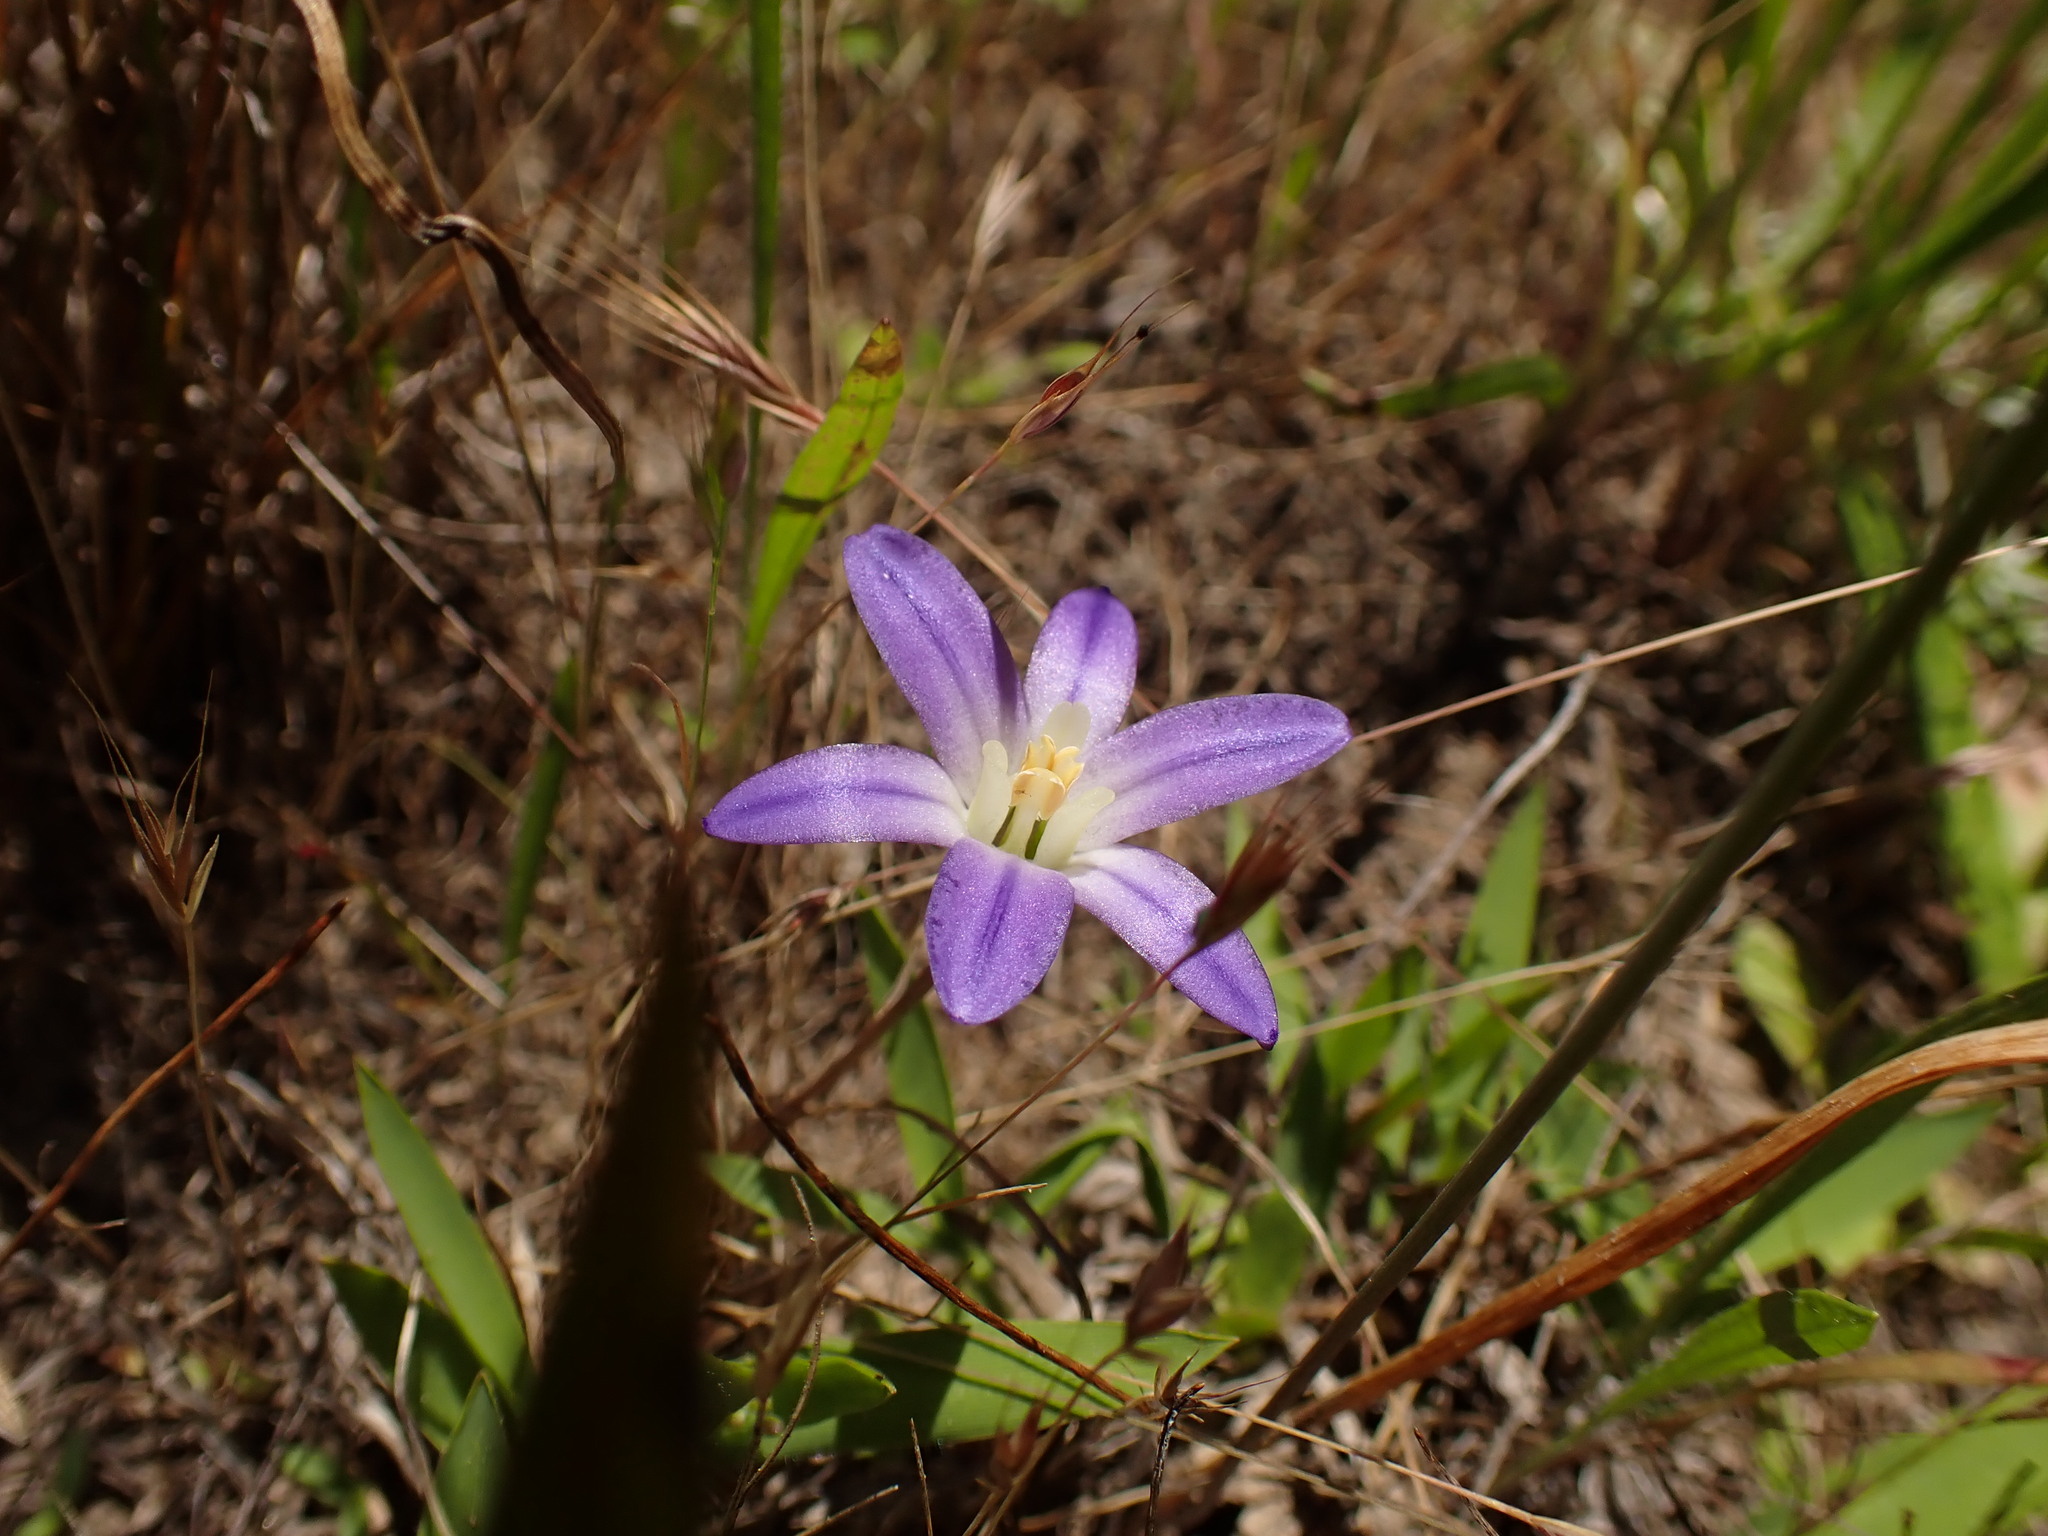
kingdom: Plantae
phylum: Tracheophyta
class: Liliopsida
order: Asparagales
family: Asparagaceae
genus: Brodiaea
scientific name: Brodiaea terrestris
